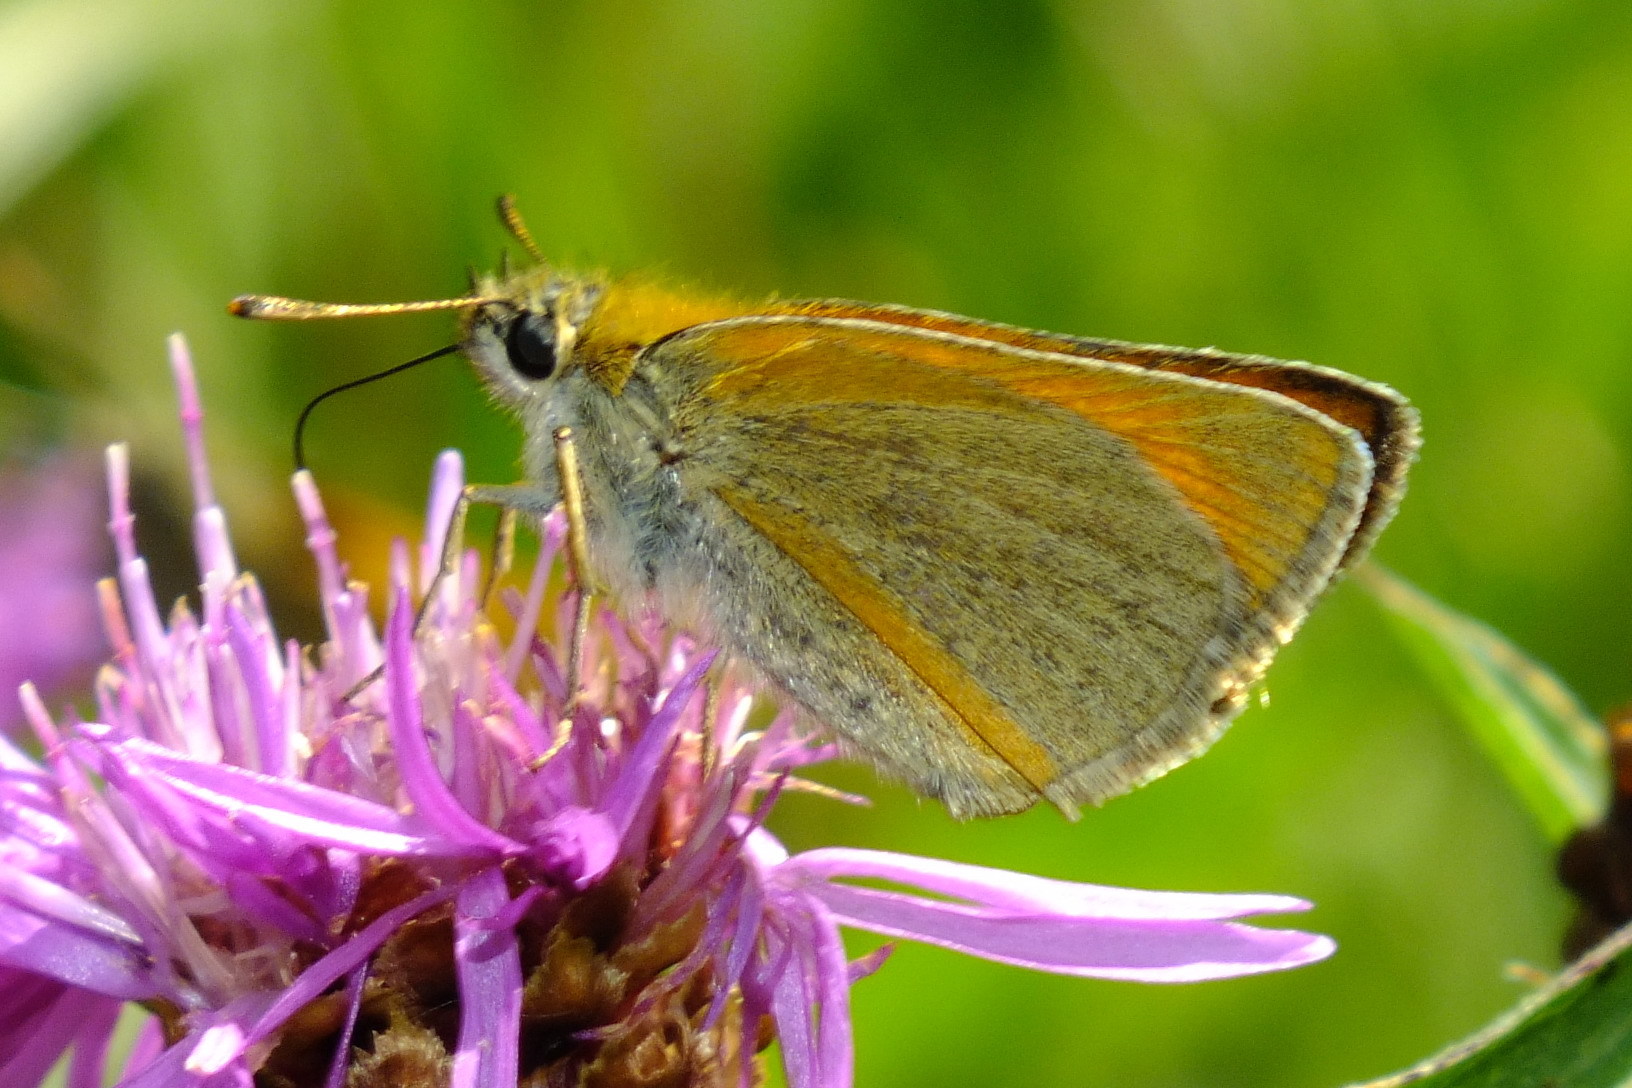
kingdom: Animalia
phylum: Arthropoda
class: Insecta
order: Lepidoptera
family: Hesperiidae
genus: Thymelicus
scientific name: Thymelicus sylvestris
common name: Small skipper
